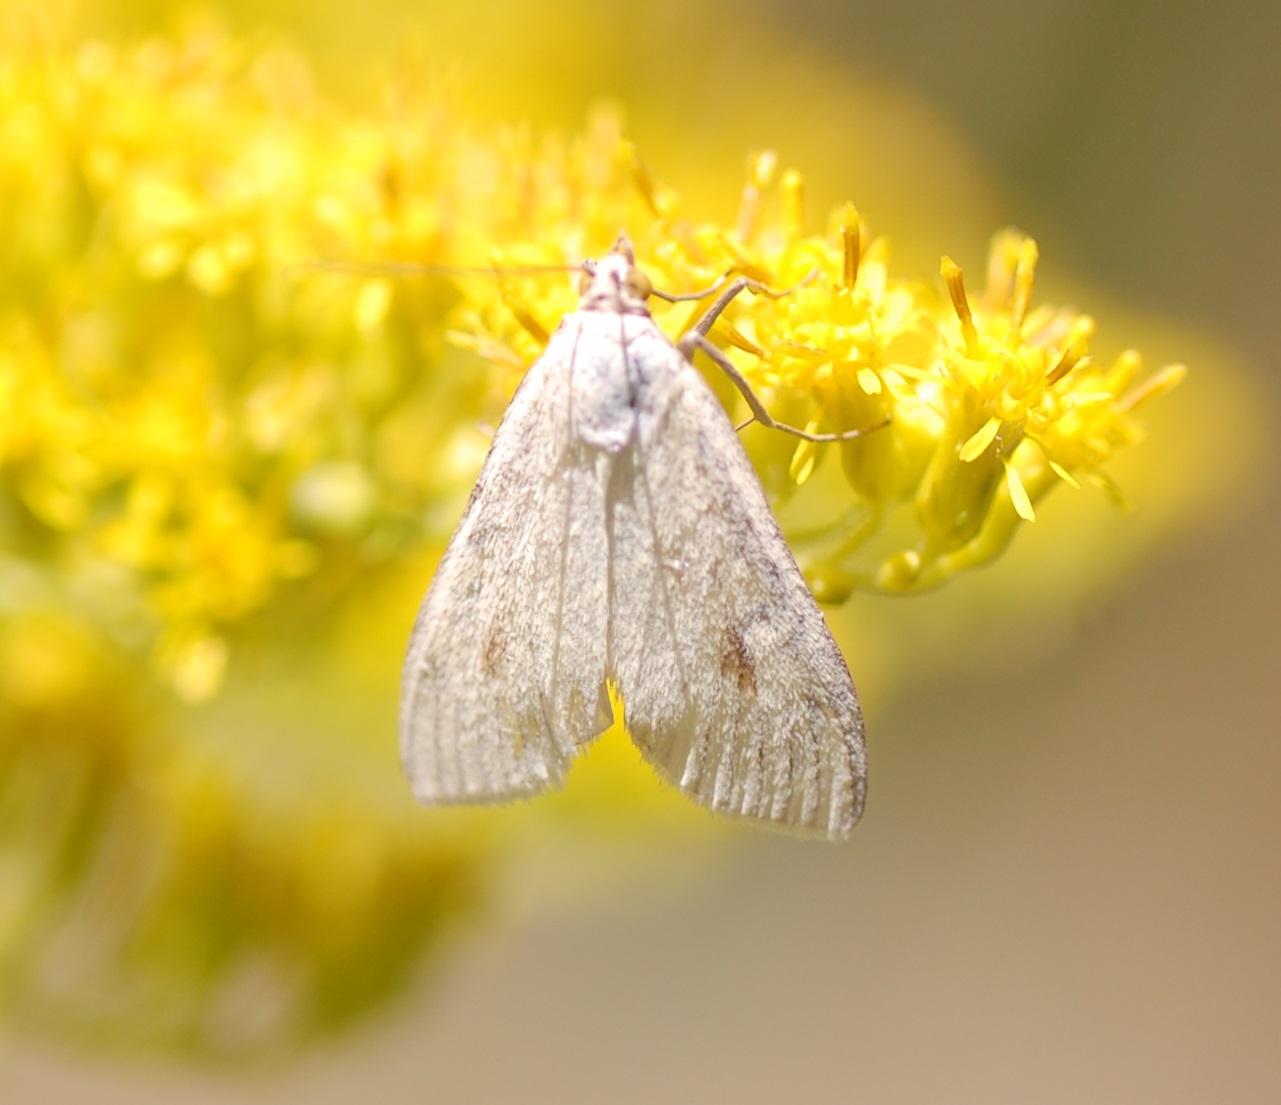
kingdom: Animalia
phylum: Arthropoda
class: Insecta
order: Lepidoptera
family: Crambidae
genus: Sitochroa
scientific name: Sitochroa palealis
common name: Greenish-yellow sitochroa moth
